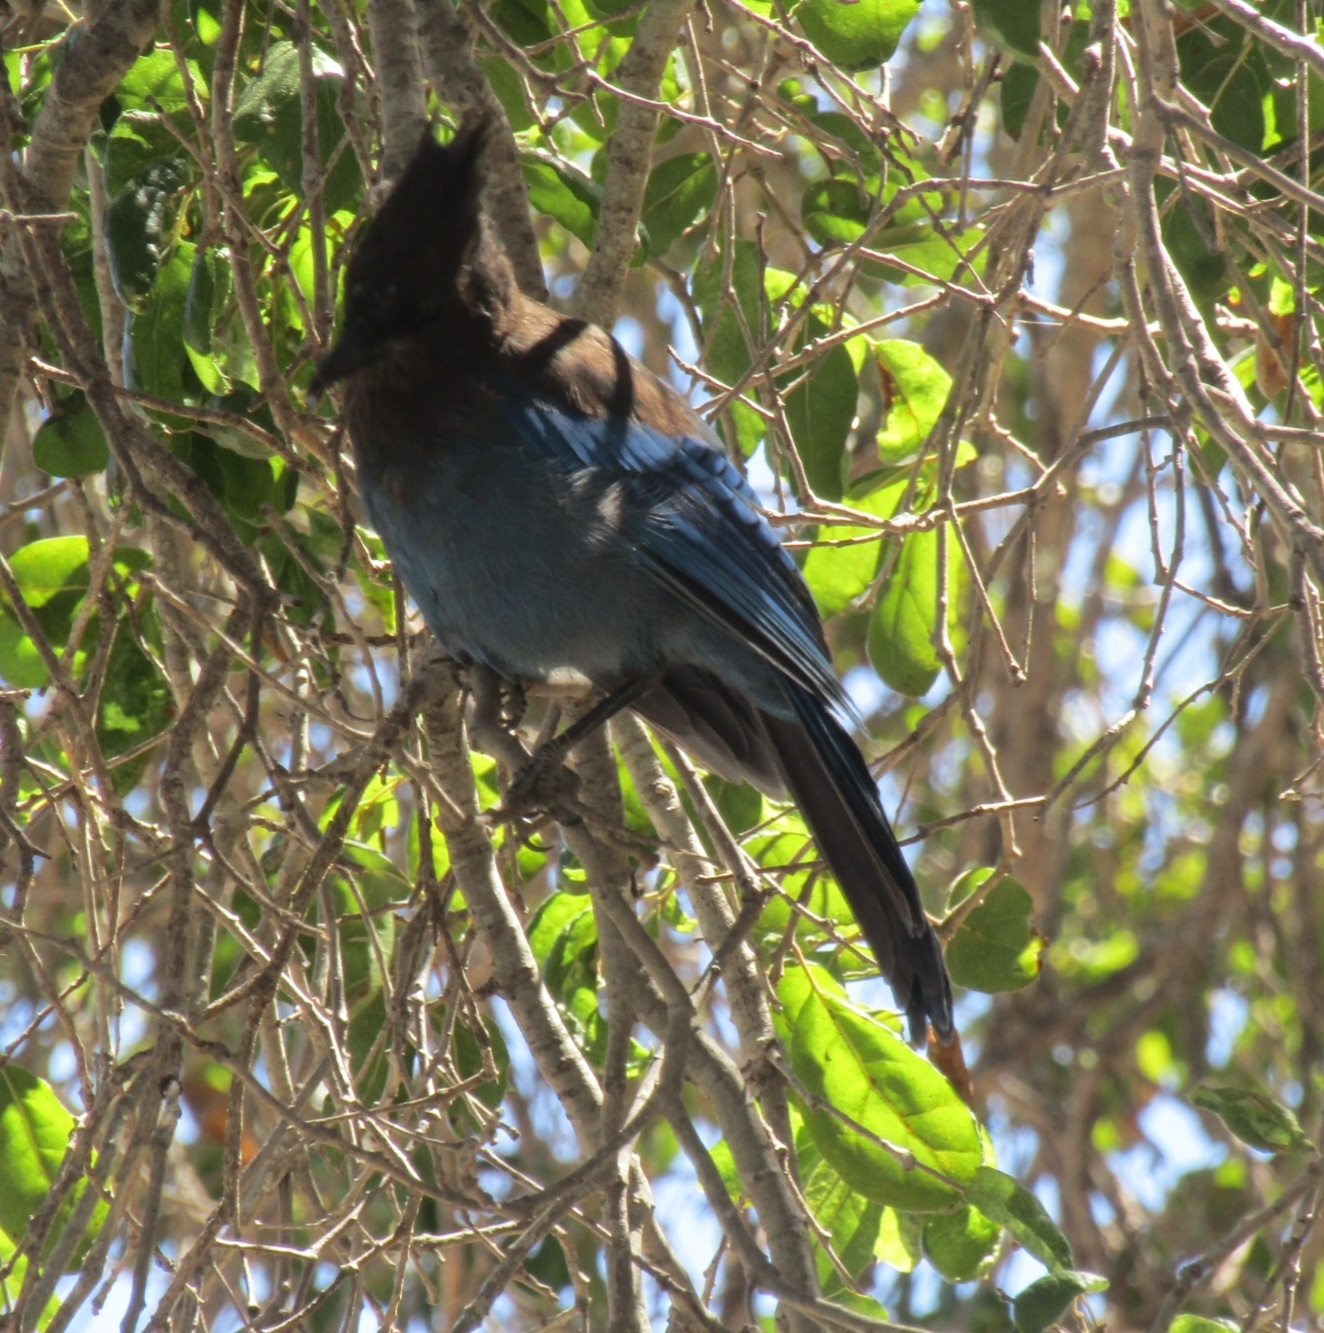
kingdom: Animalia
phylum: Chordata
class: Aves
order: Passeriformes
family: Corvidae
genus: Cyanocitta
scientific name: Cyanocitta stelleri
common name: Steller's jay
